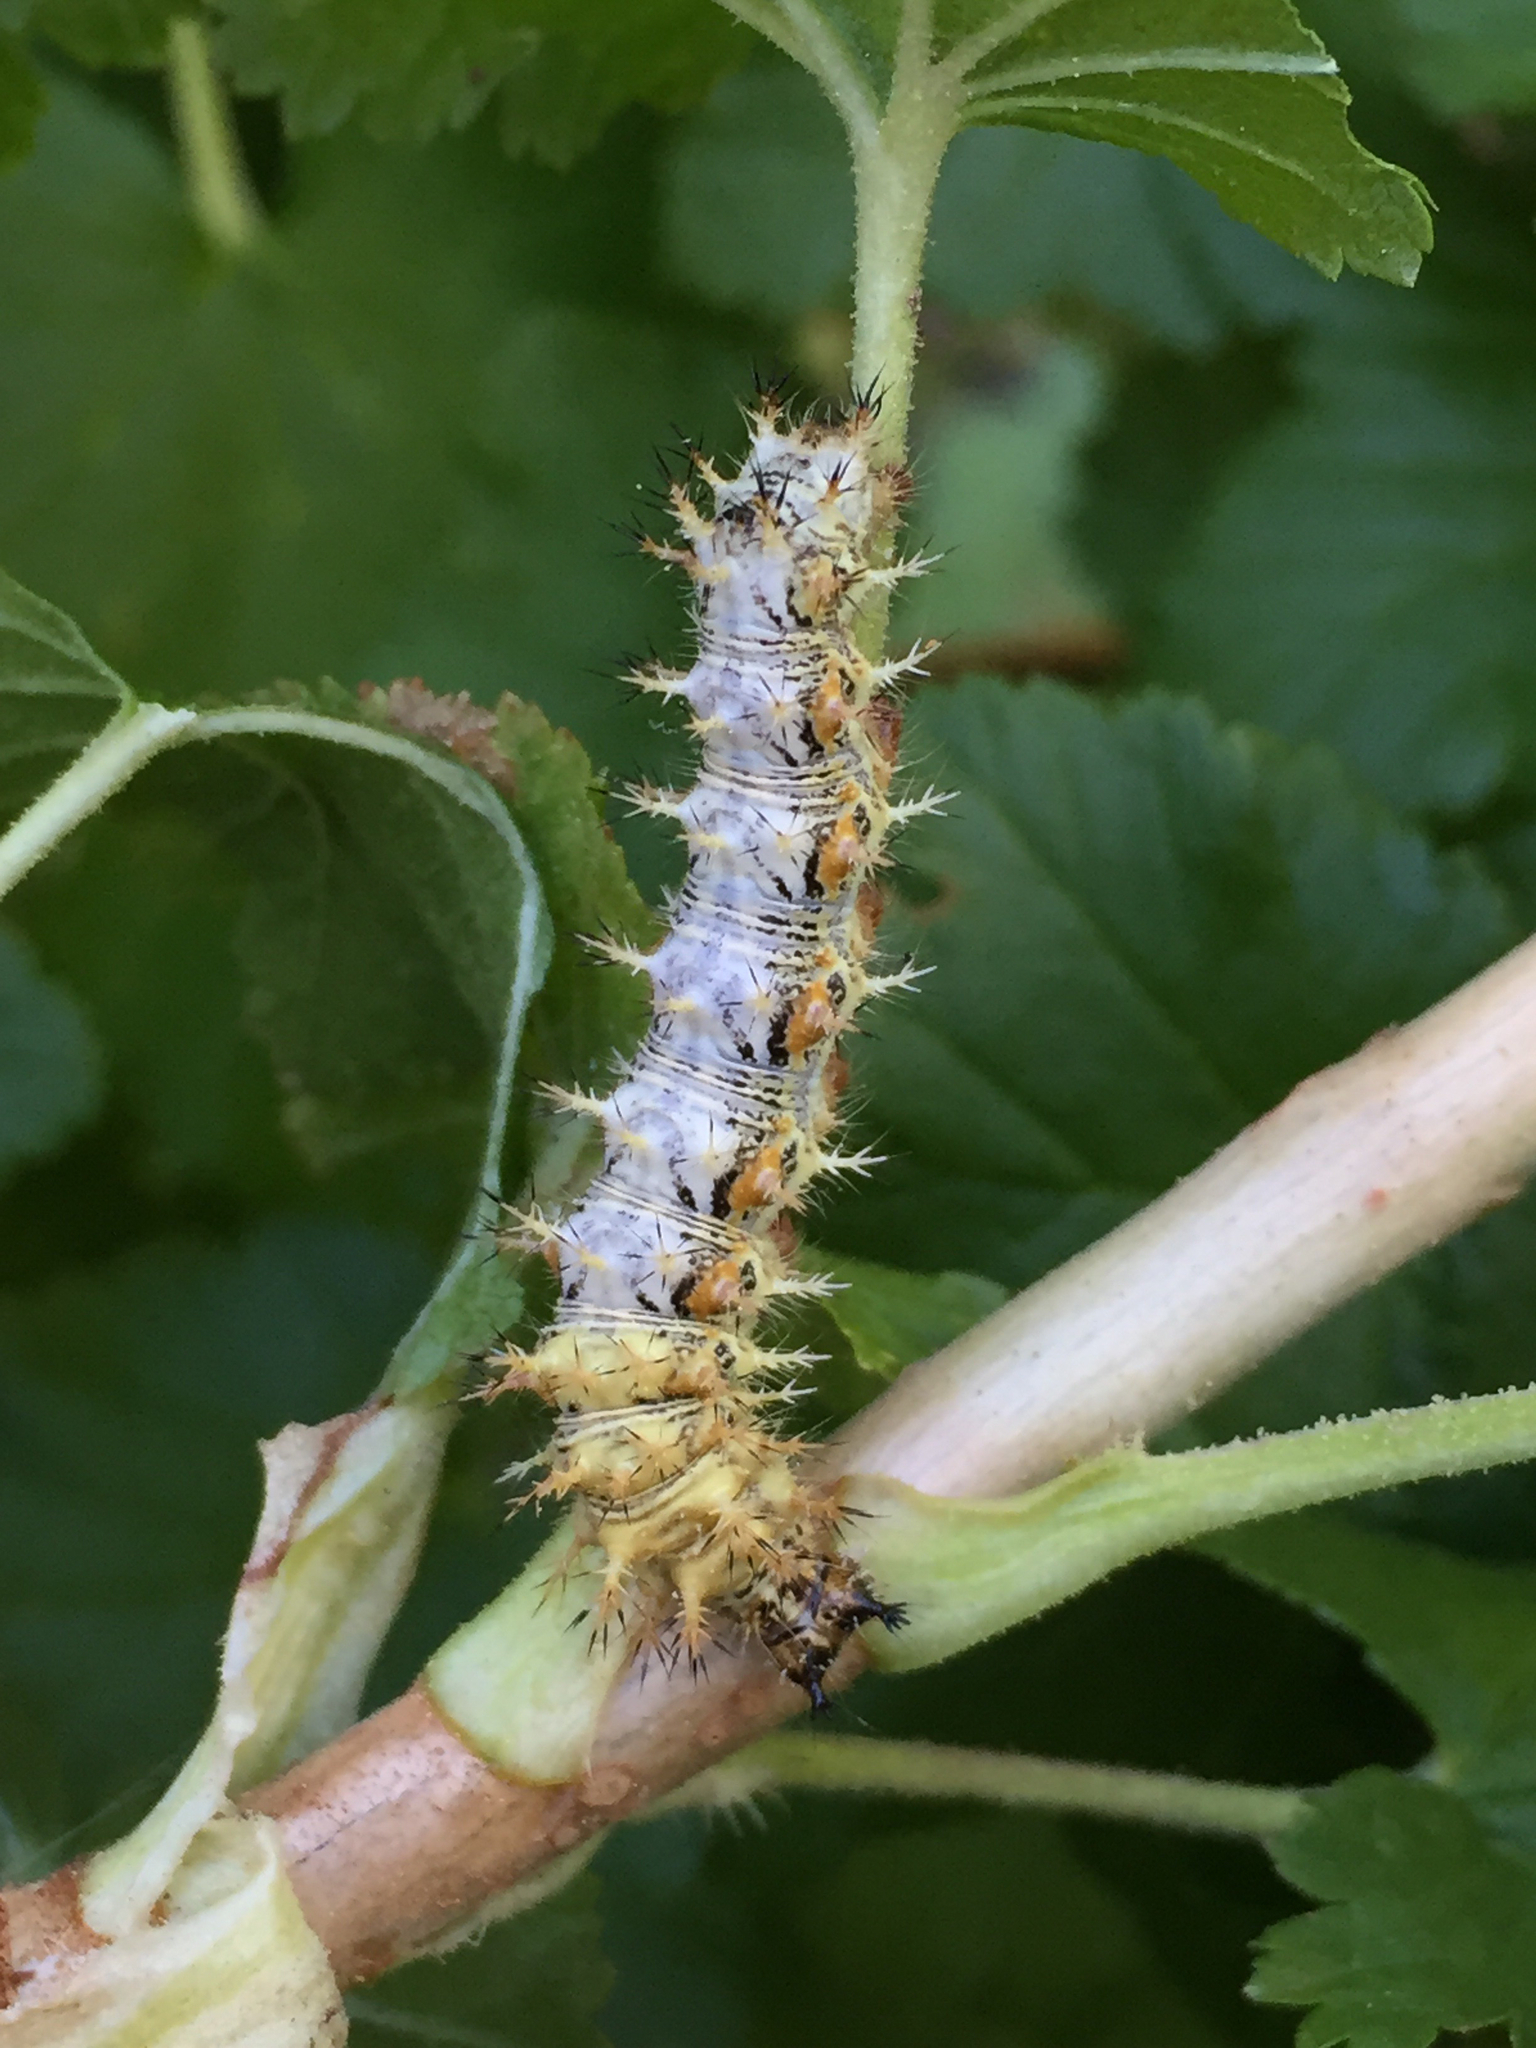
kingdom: Animalia
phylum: Arthropoda
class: Insecta
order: Lepidoptera
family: Nymphalidae
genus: Polygonia
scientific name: Polygonia gracilis
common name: Hoary comma
